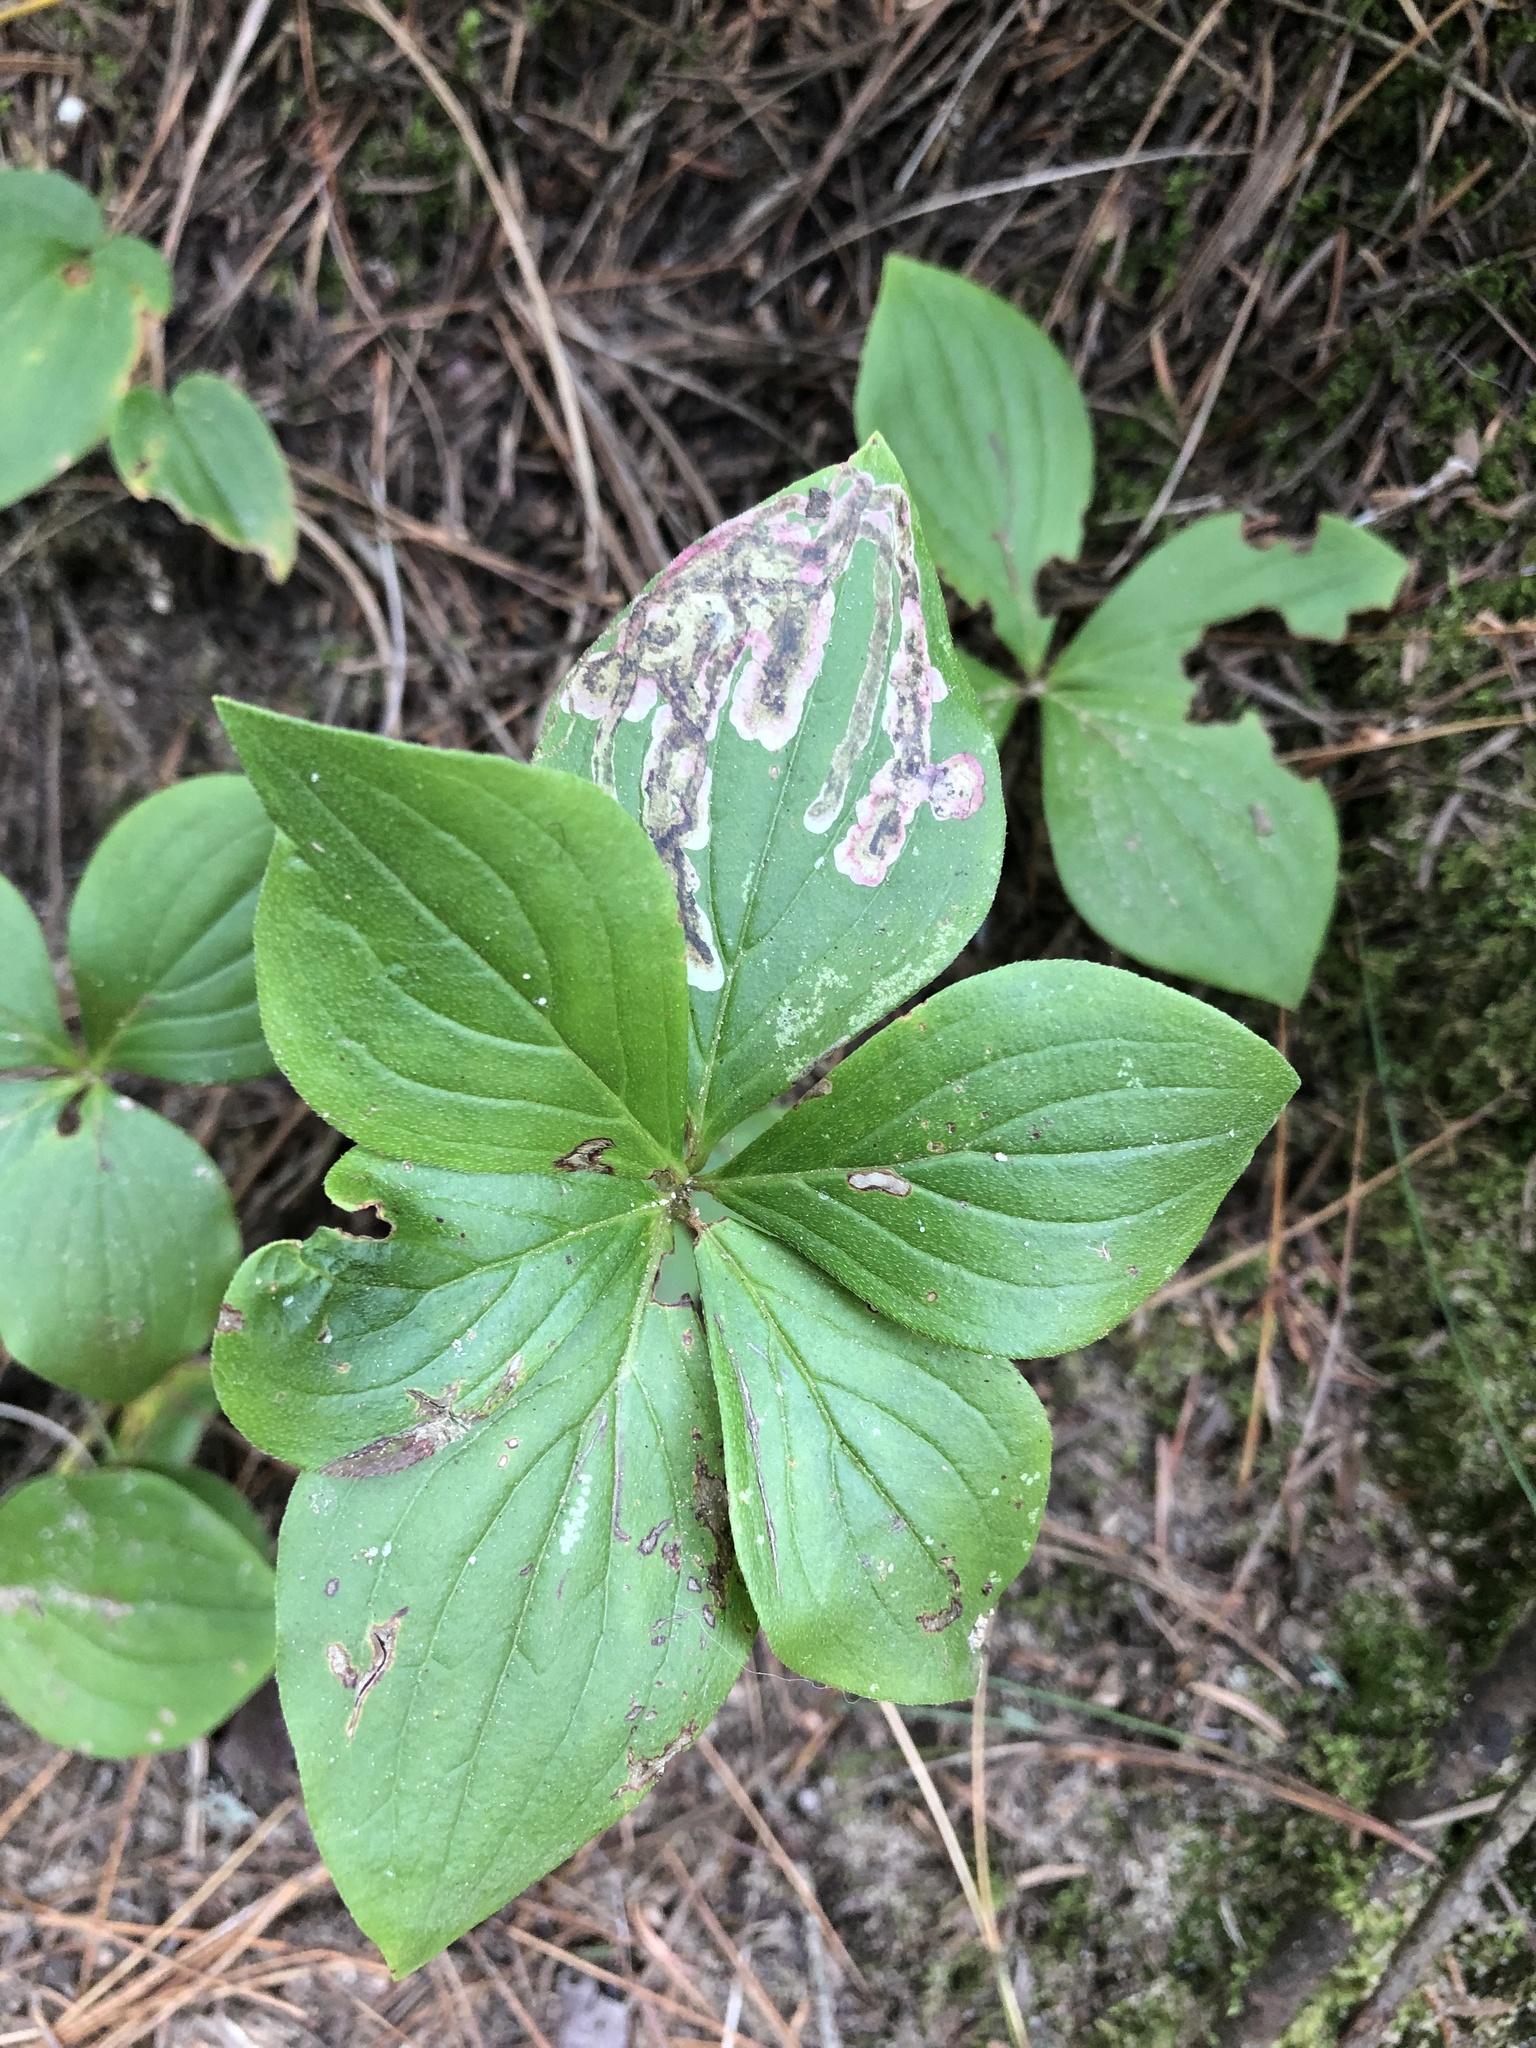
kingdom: Plantae
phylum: Tracheophyta
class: Magnoliopsida
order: Cornales
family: Cornaceae
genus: Cornus
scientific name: Cornus canadensis
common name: Creeping dogwood
